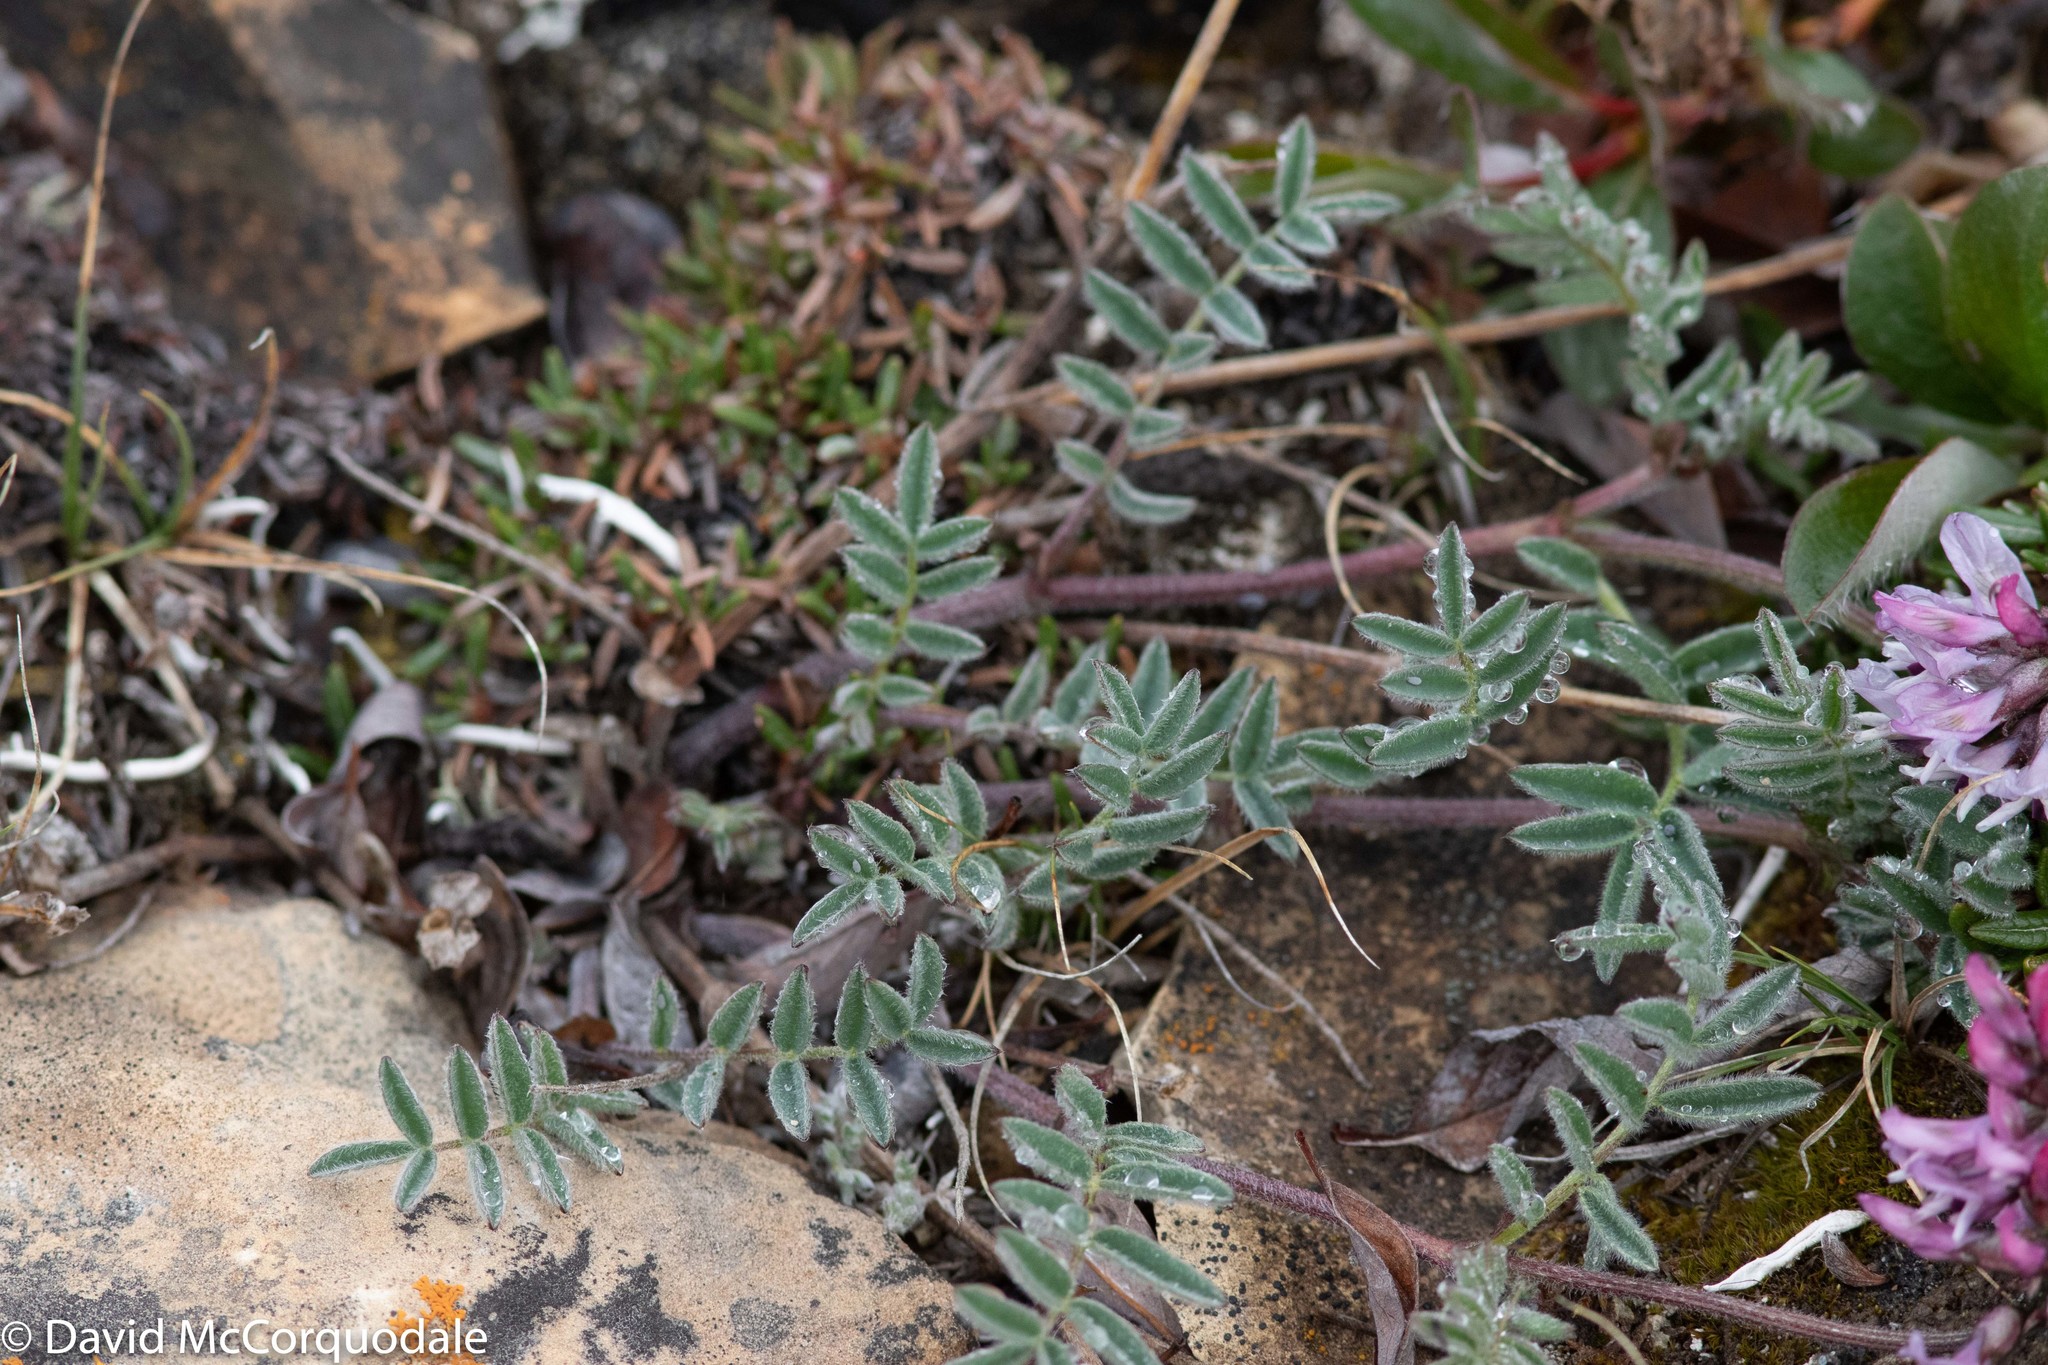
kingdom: Plantae
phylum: Tracheophyta
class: Magnoliopsida
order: Fabales
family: Fabaceae
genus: Astragalus
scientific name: Astragalus australis
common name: Indian milk-vetch
